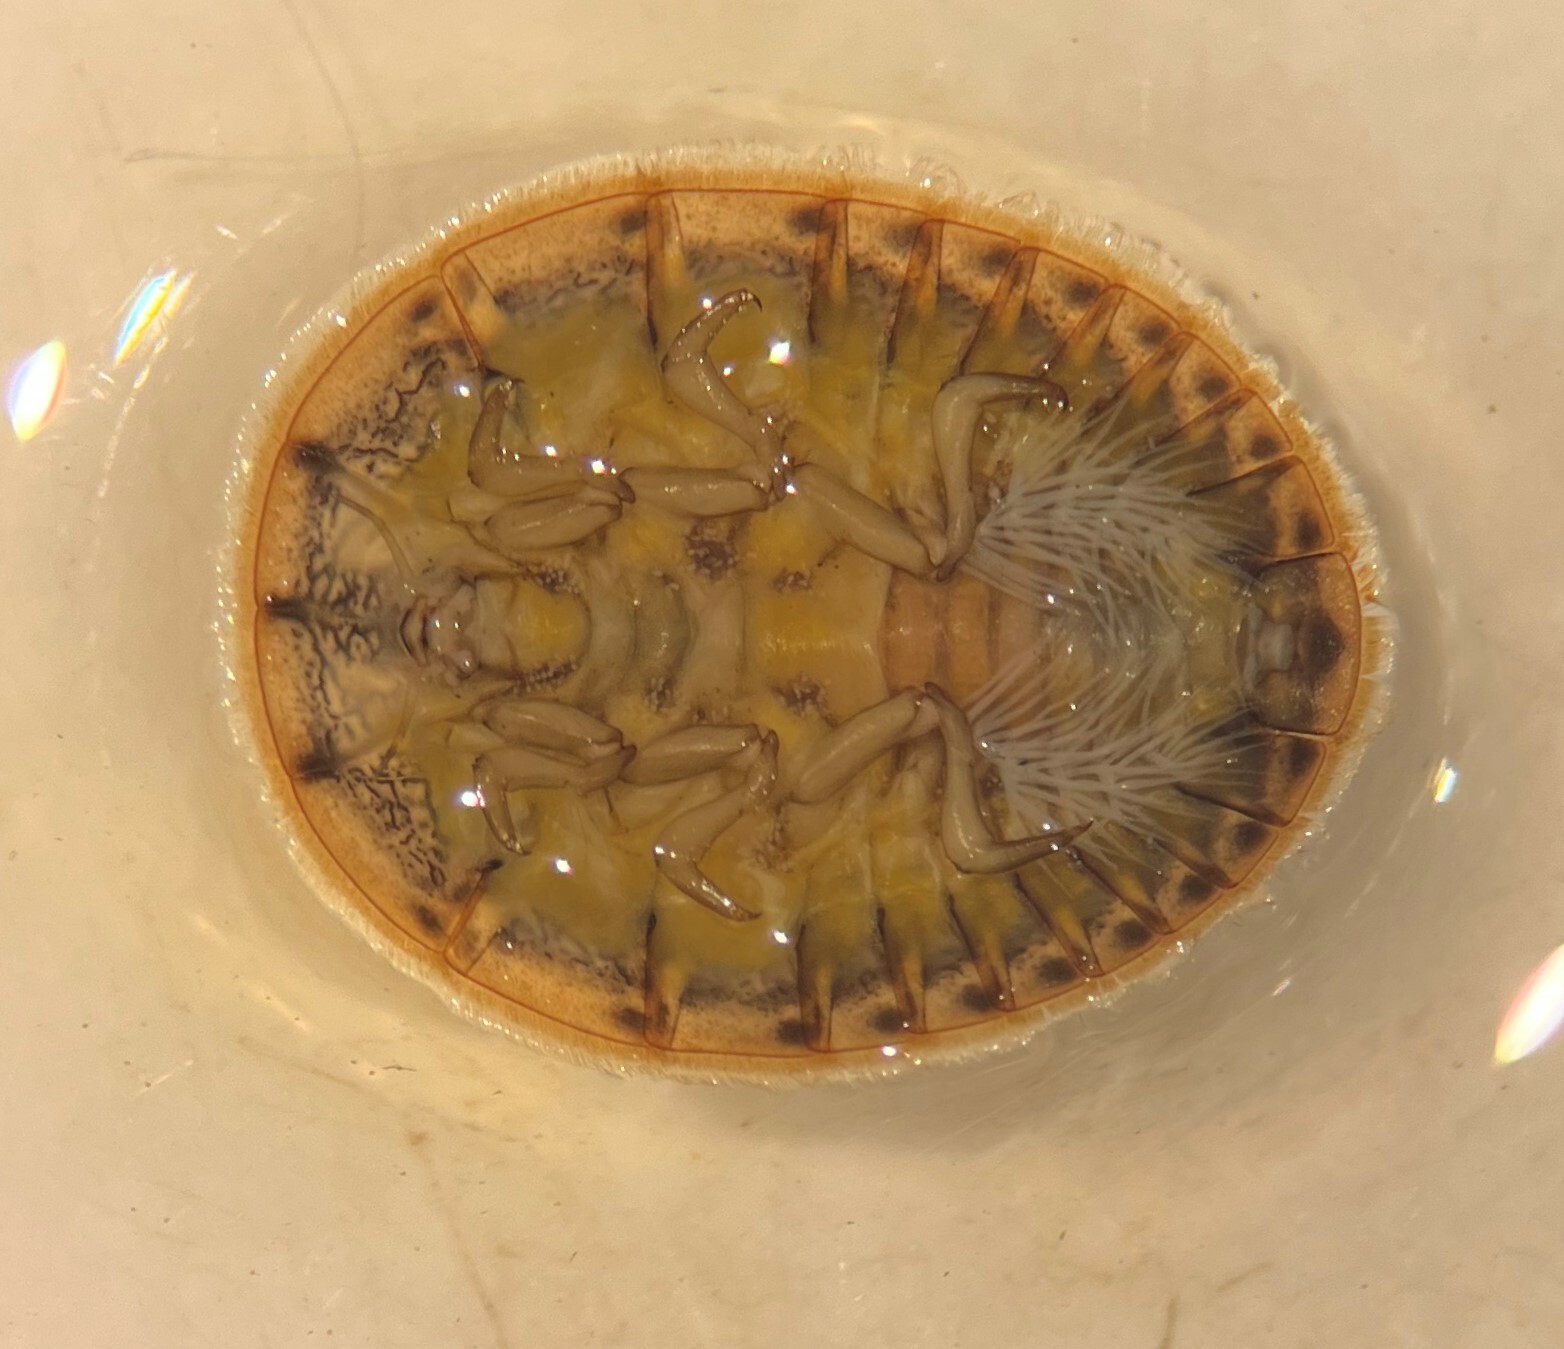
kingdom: Animalia
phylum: Arthropoda
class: Insecta
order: Coleoptera
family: Psephenidae
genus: Psephenus
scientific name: Psephenus herricki
